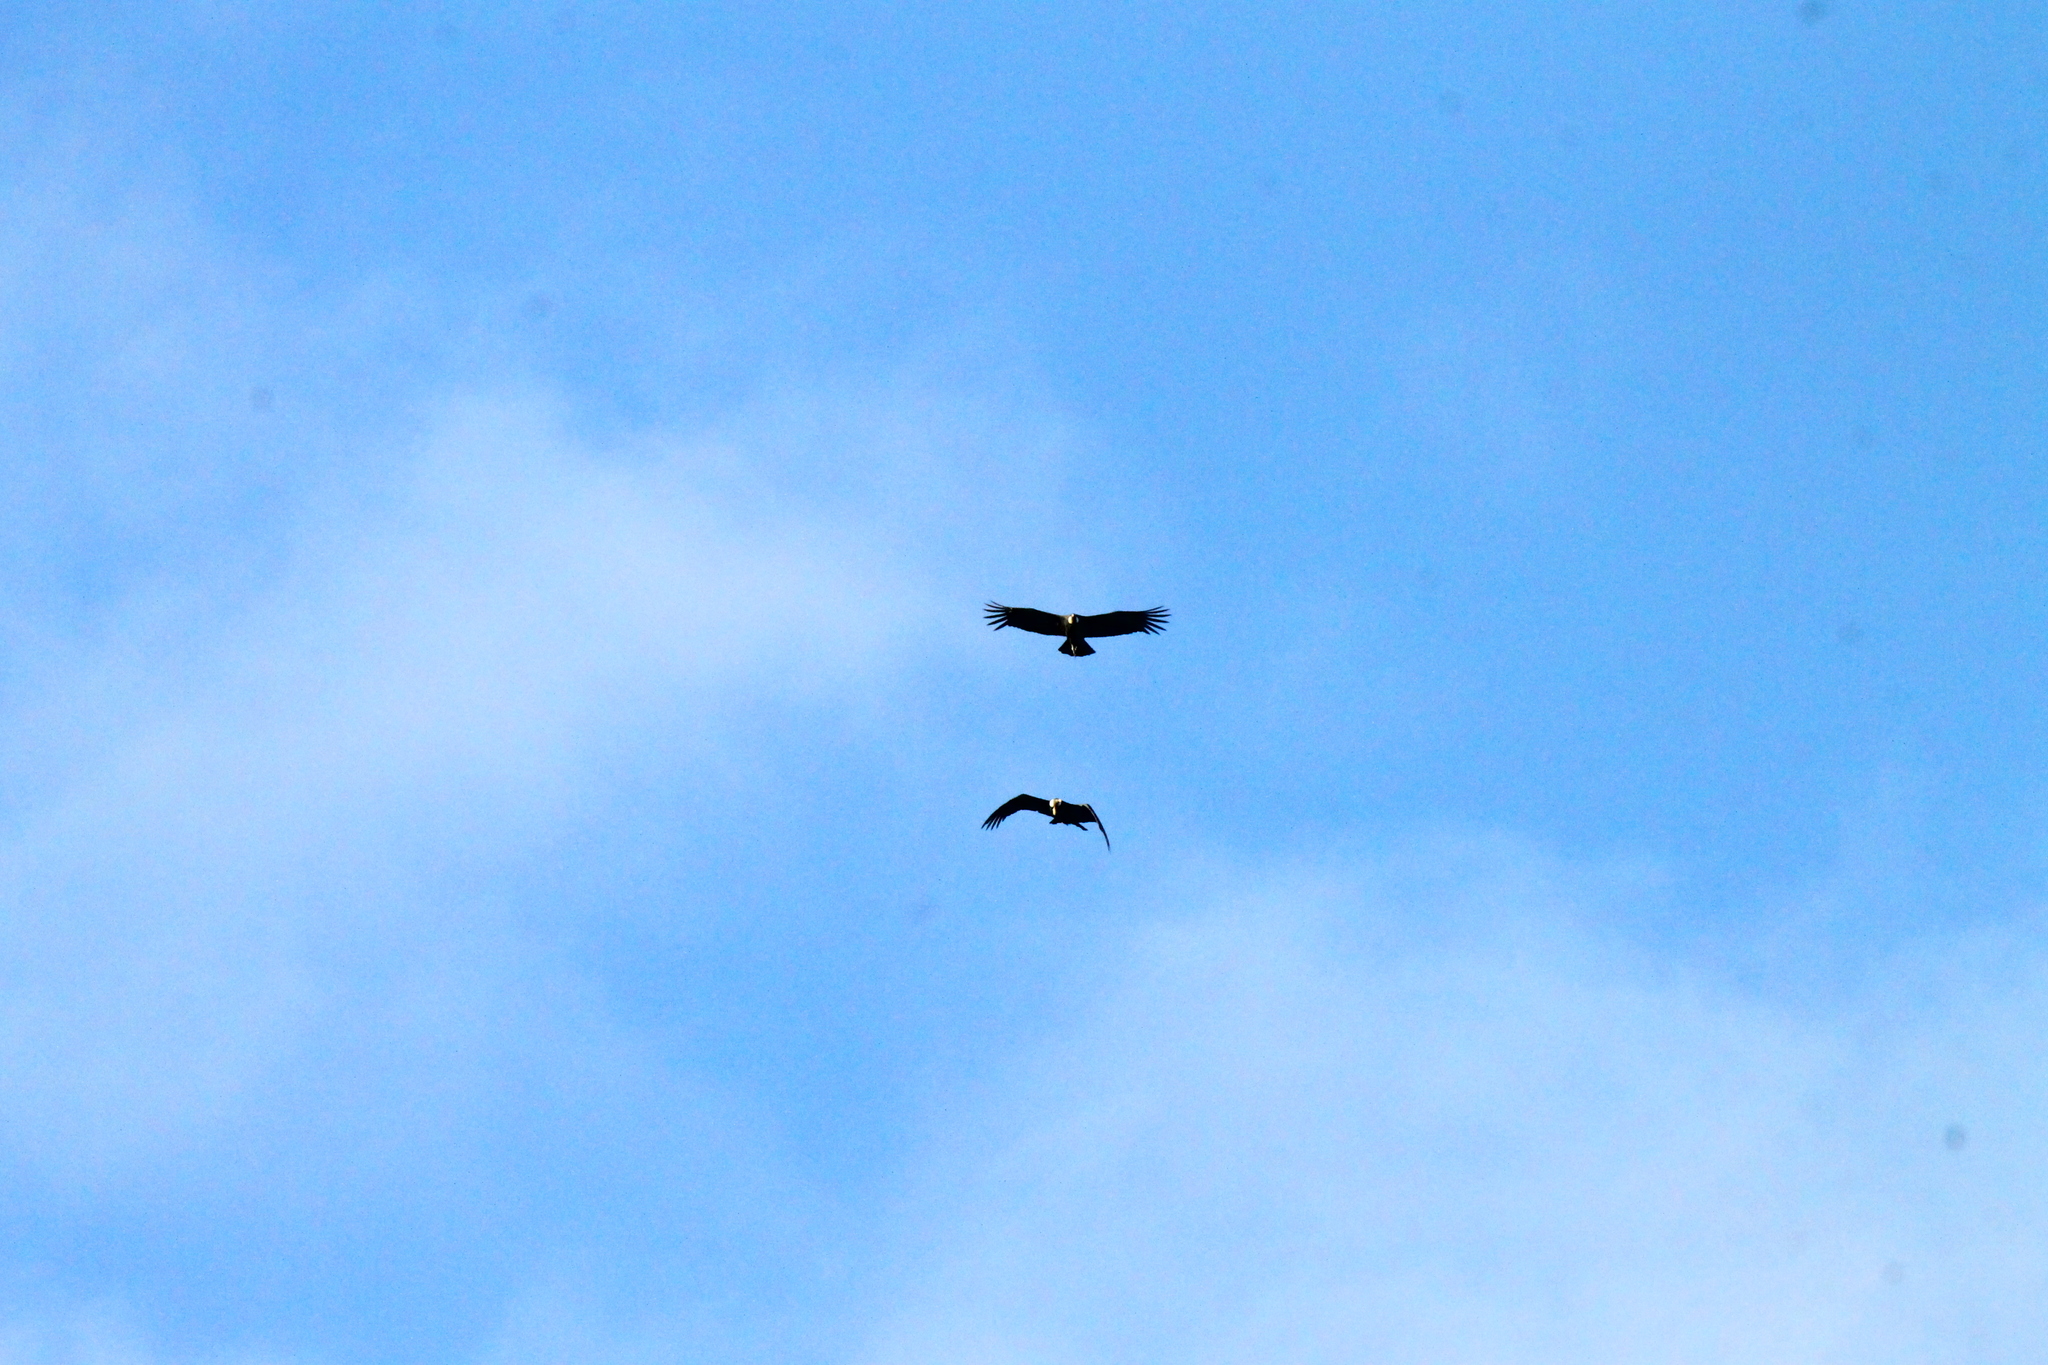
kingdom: Animalia
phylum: Chordata
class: Aves
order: Accipitriformes
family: Cathartidae
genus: Vultur
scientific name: Vultur gryphus
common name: Andean condor
